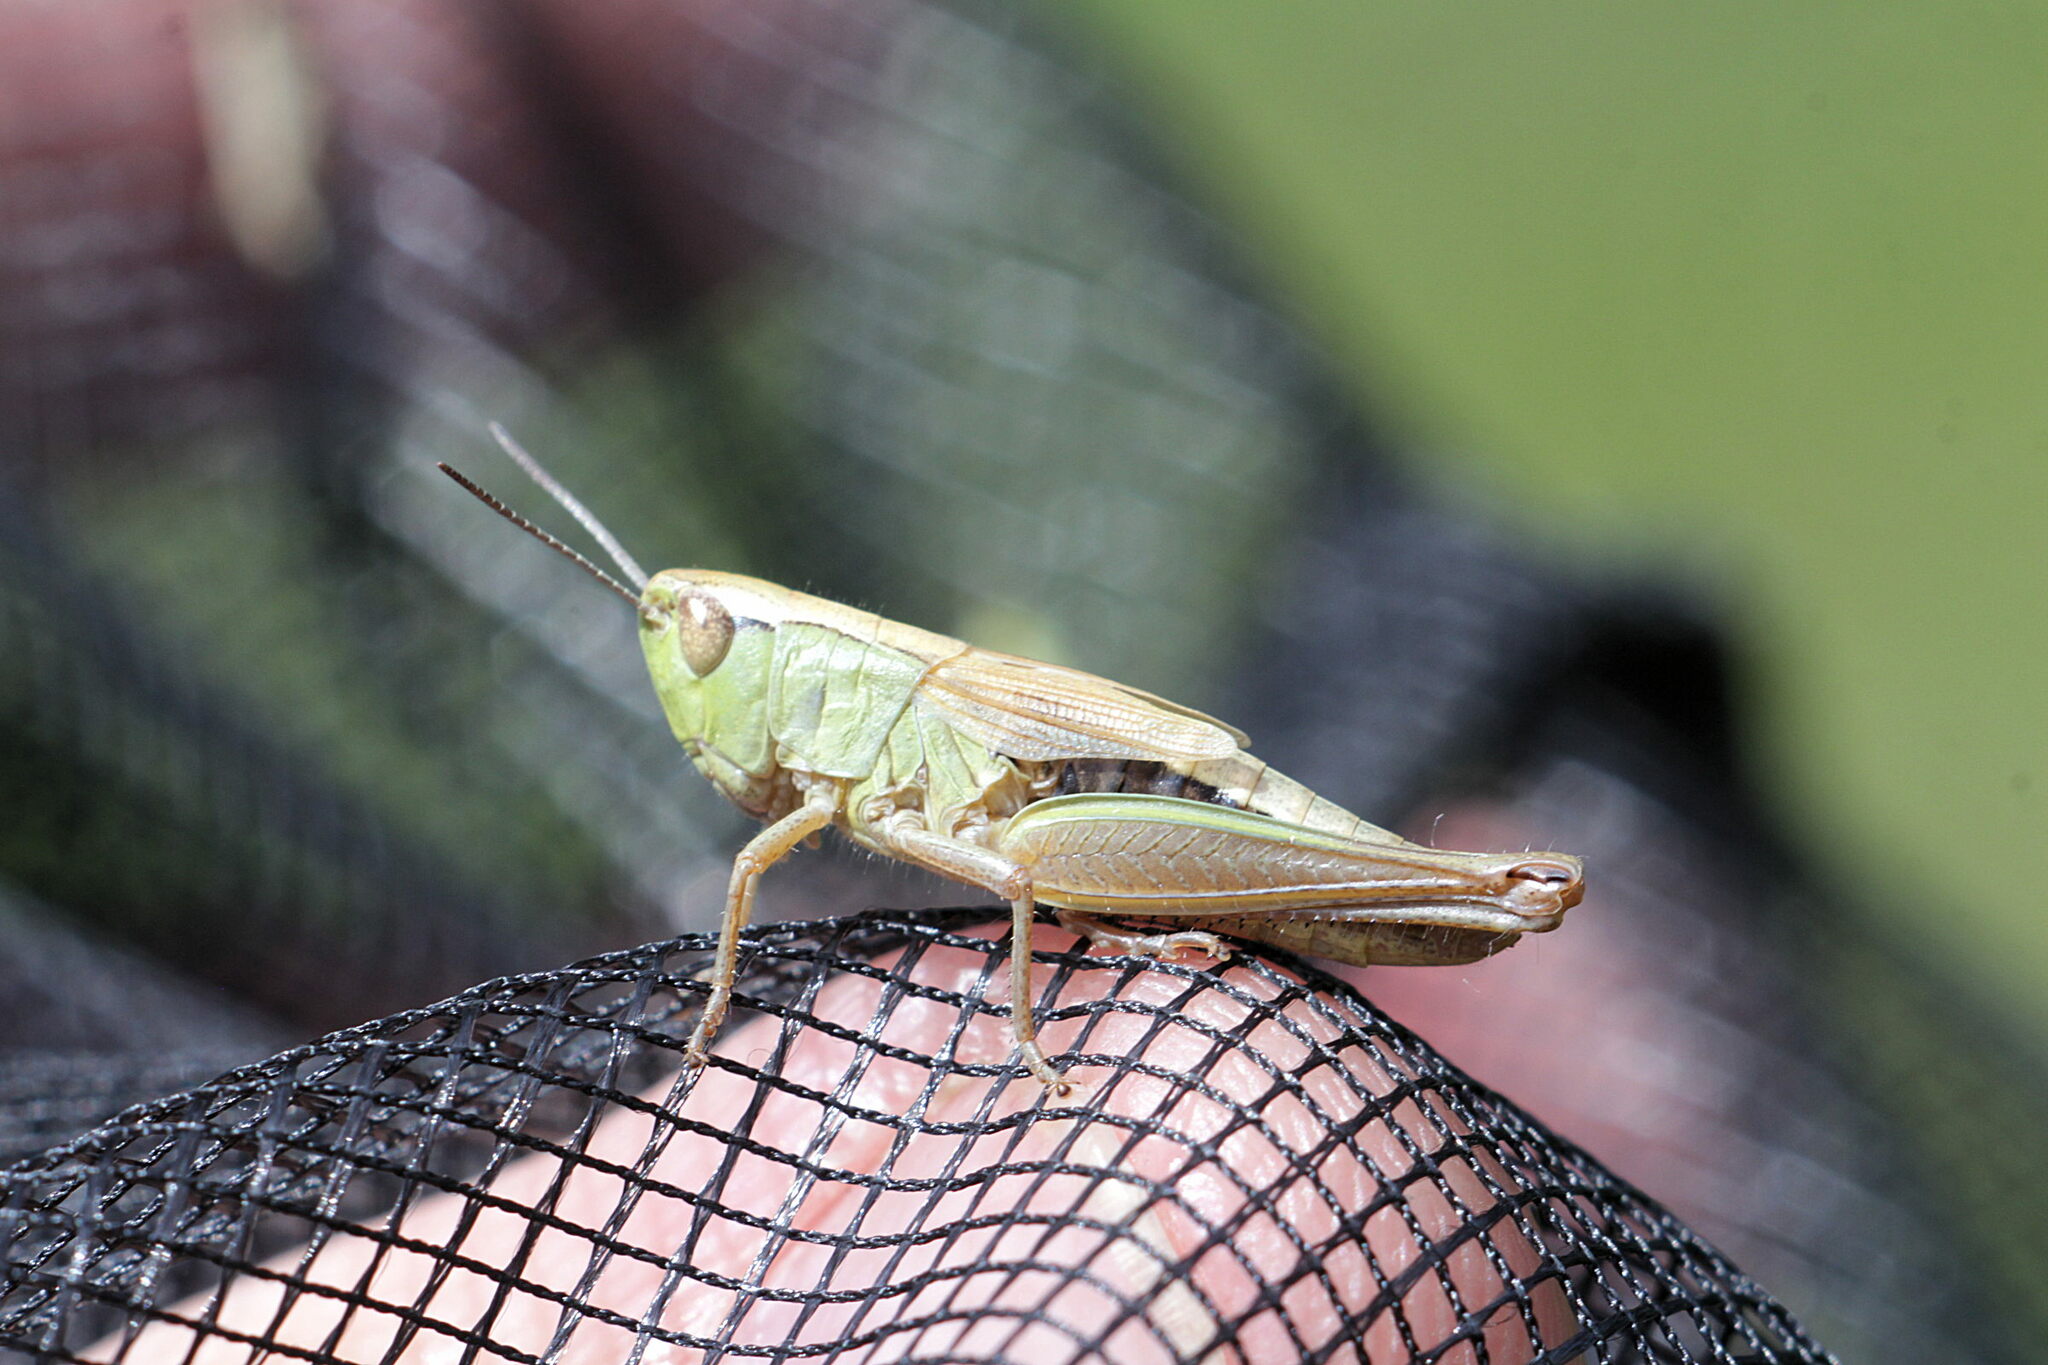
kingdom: Animalia
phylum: Arthropoda
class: Insecta
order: Orthoptera
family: Acrididae
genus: Pseudochorthippus
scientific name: Pseudochorthippus parallelus
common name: Meadow grasshopper
